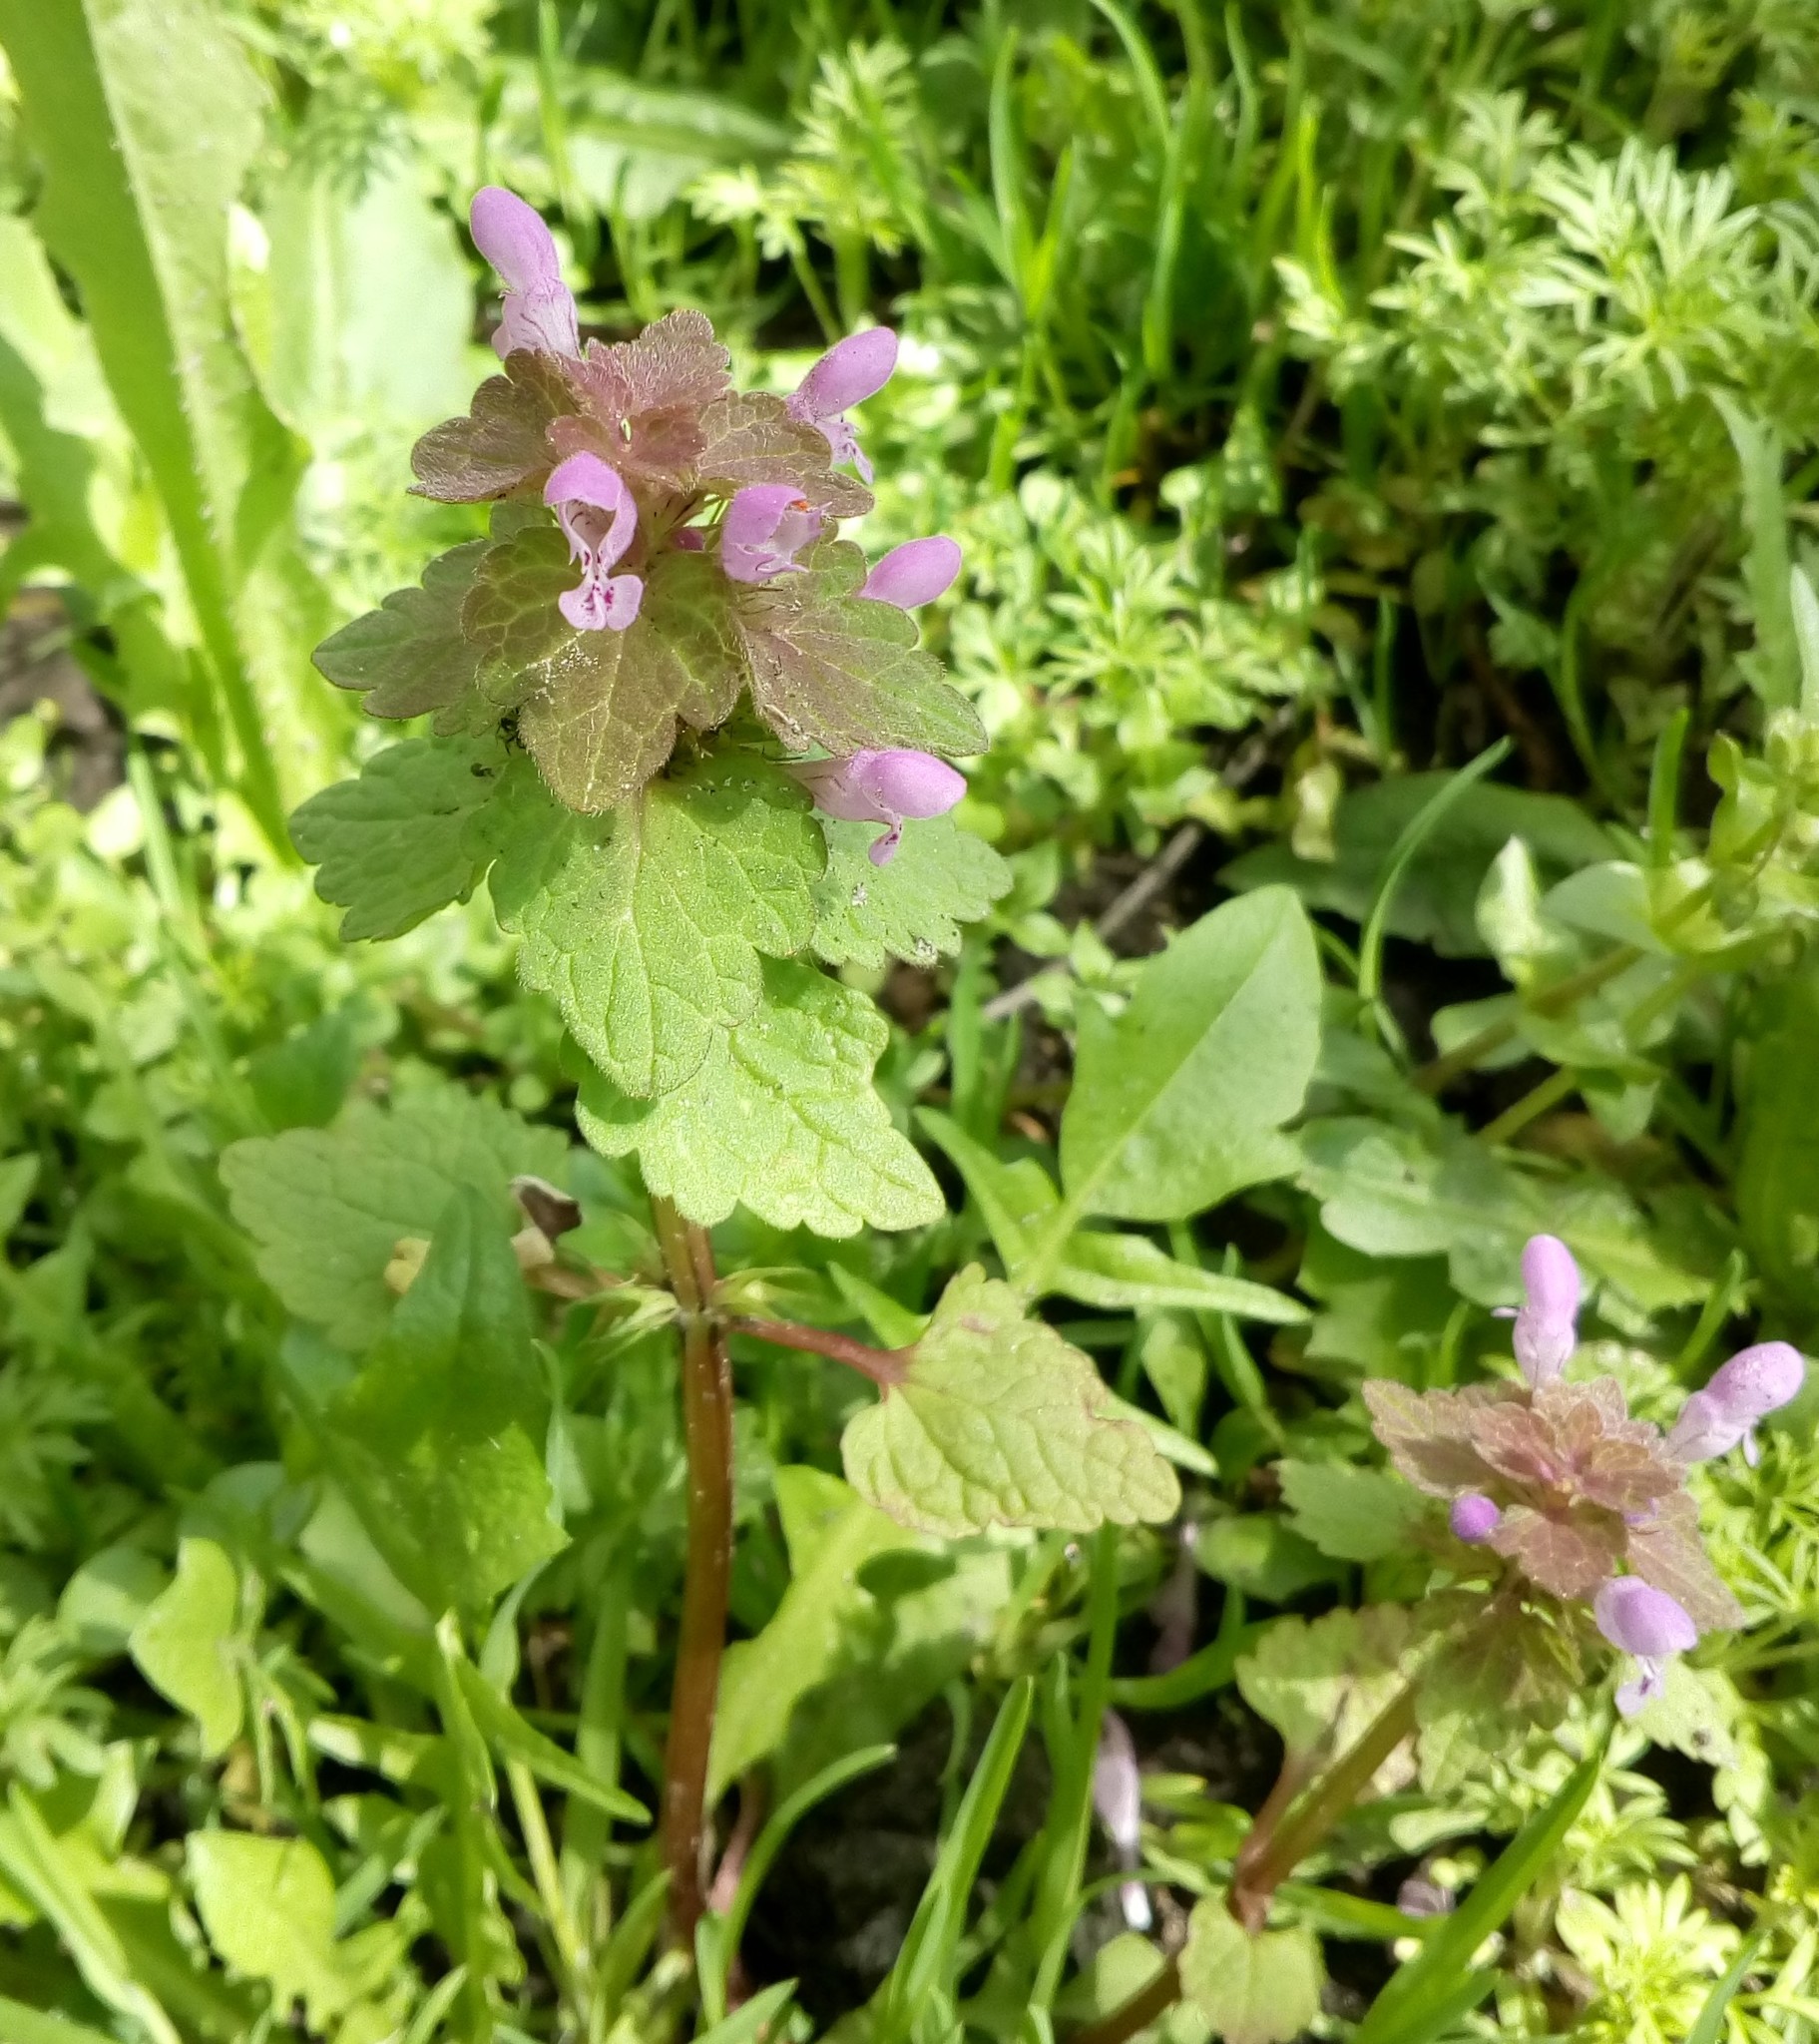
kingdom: Plantae
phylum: Tracheophyta
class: Magnoliopsida
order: Lamiales
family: Lamiaceae
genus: Lamium
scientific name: Lamium purpureum
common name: Red dead-nettle
